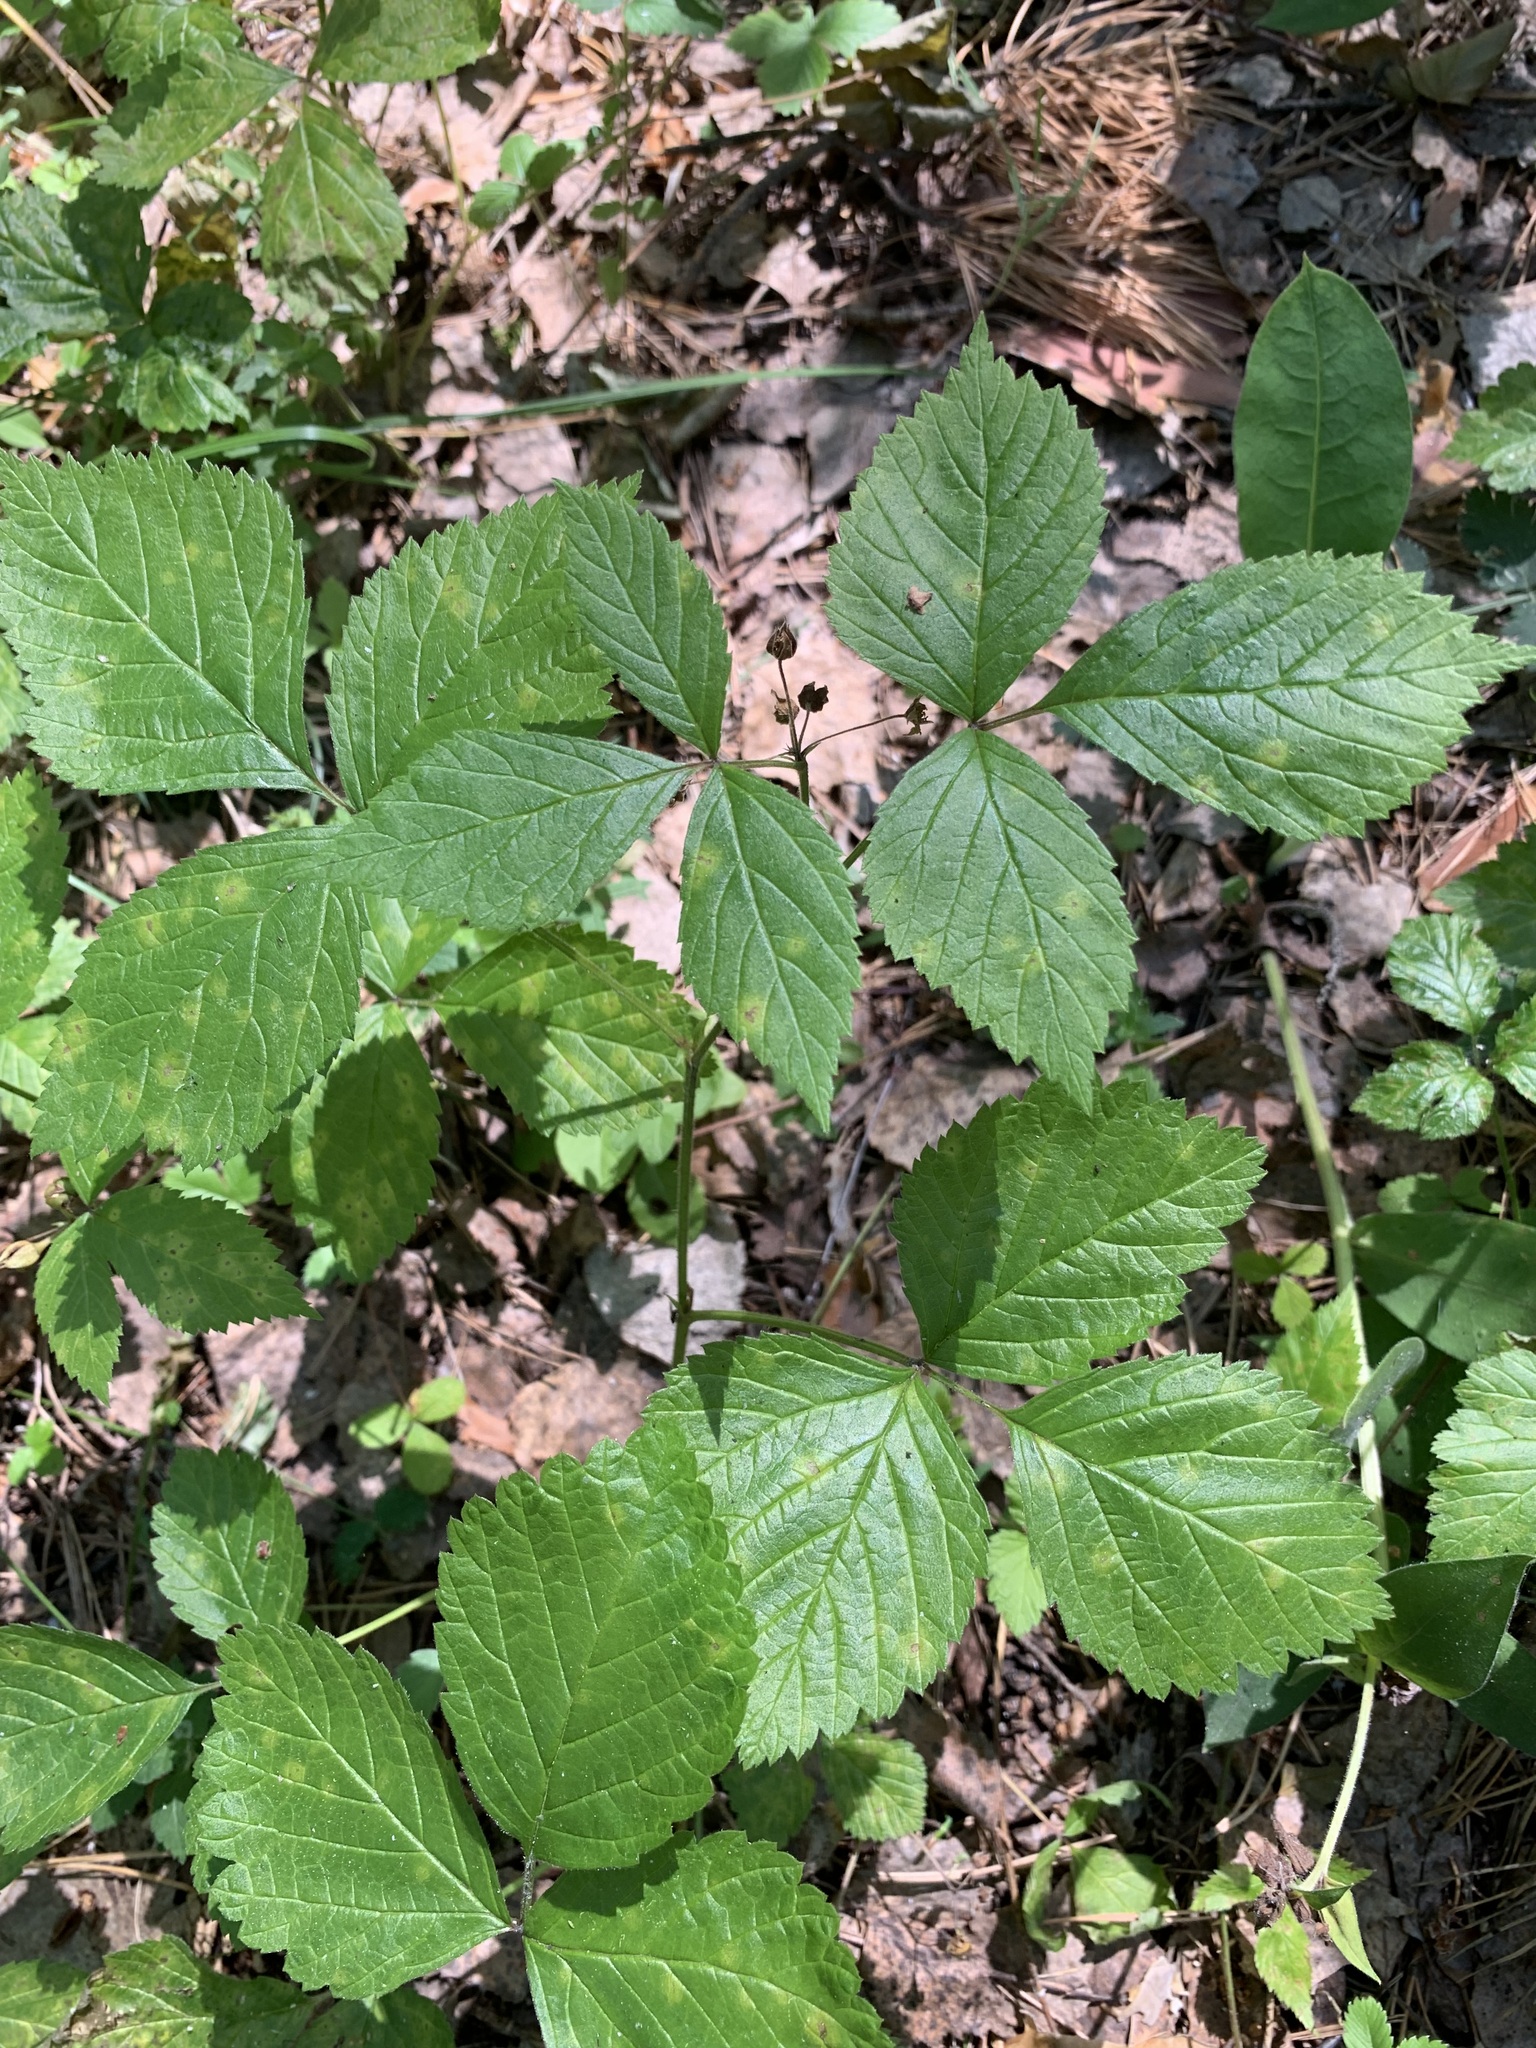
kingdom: Plantae
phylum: Tracheophyta
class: Magnoliopsida
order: Rosales
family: Rosaceae
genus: Rubus
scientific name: Rubus saxatilis
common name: Stone bramble
